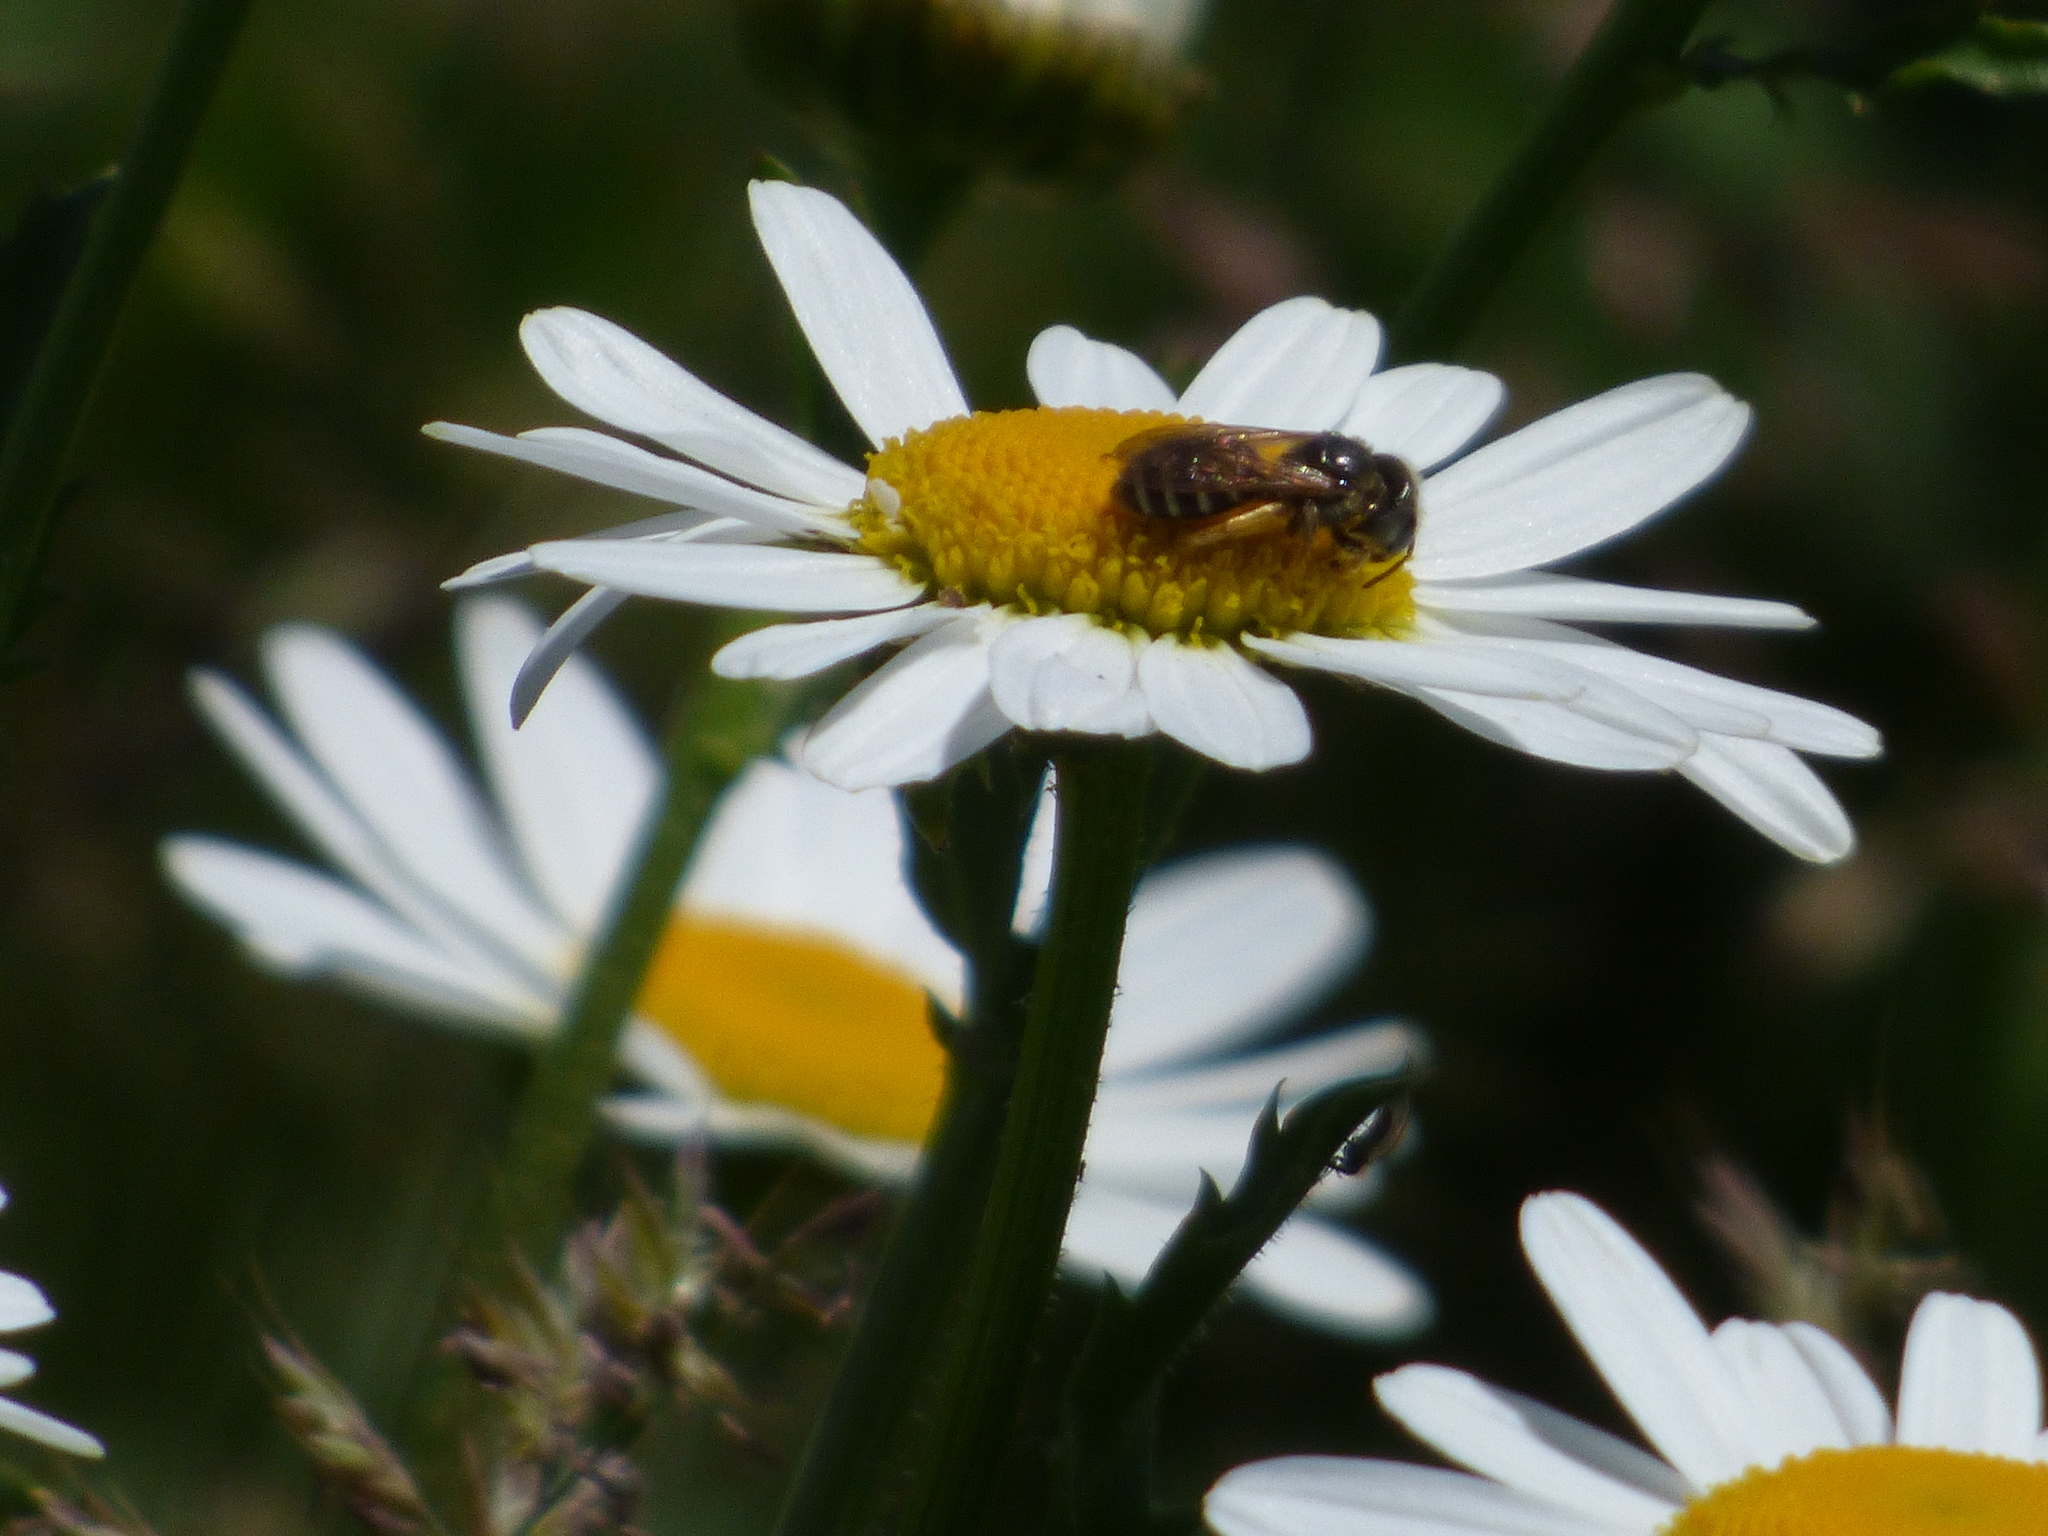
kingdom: Animalia
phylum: Arthropoda
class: Insecta
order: Hymenoptera
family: Halictidae
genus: Halictus
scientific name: Halictus ligatus
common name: Ligated furrow bee
